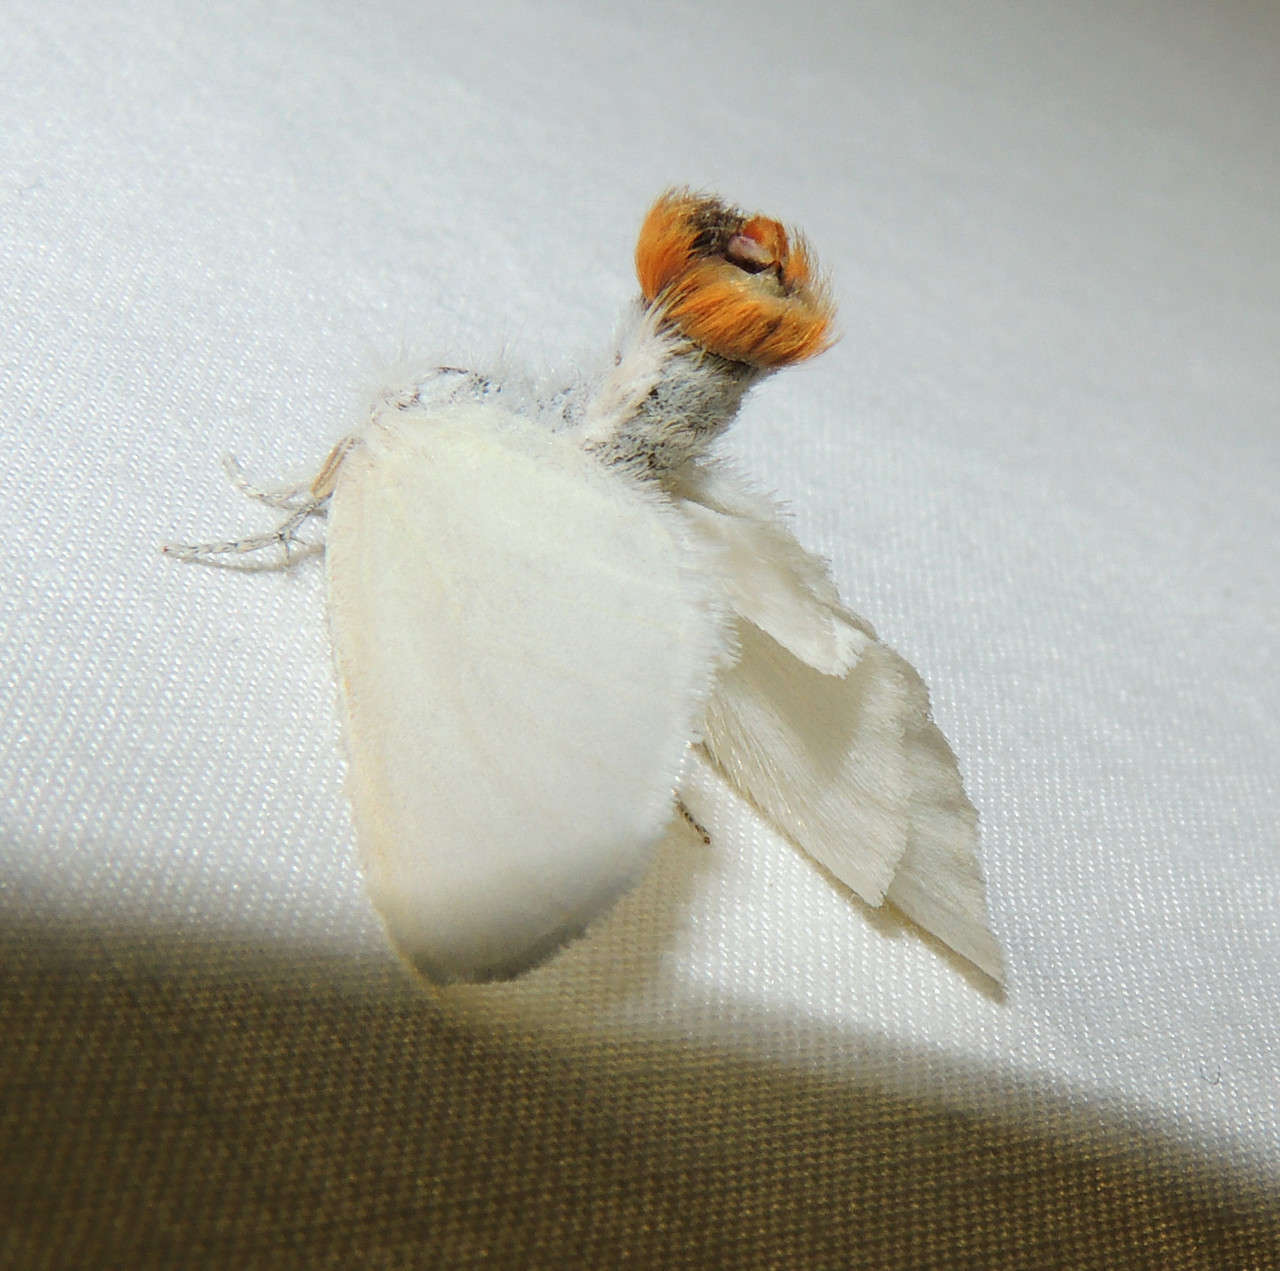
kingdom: Animalia
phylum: Arthropoda
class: Insecta
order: Lepidoptera
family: Erebidae
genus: Acyphas
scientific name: Acyphas semiochrea
